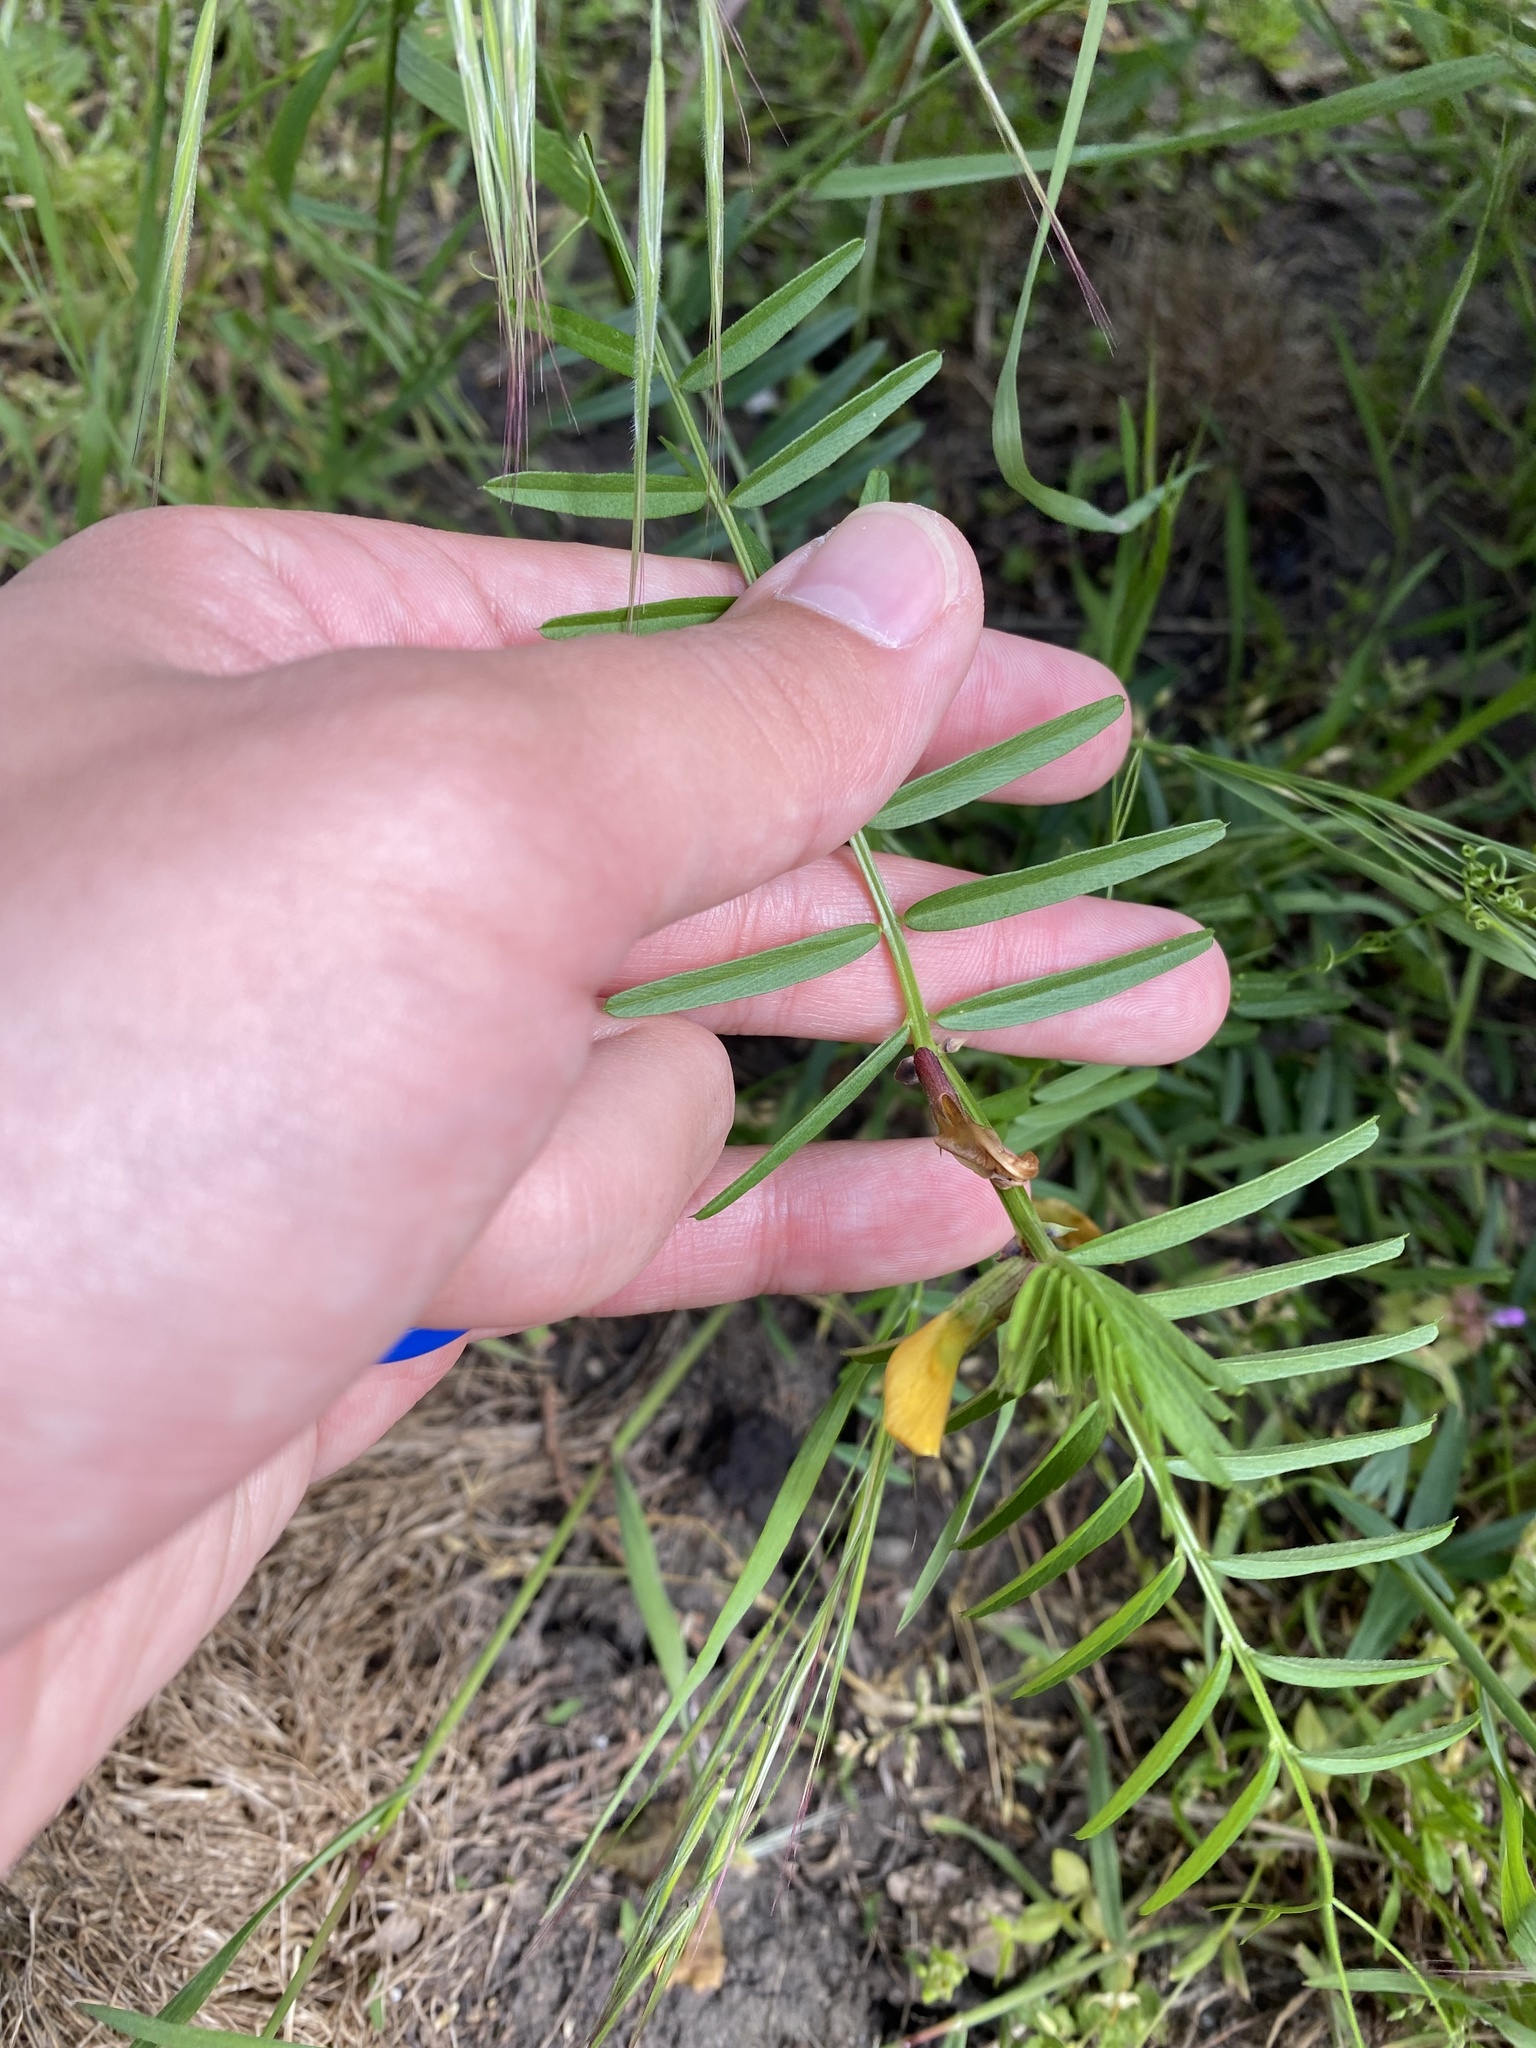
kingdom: Plantae
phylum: Tracheophyta
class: Magnoliopsida
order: Fabales
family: Fabaceae
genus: Vicia
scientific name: Vicia grandiflora
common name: Large yellow vetch
